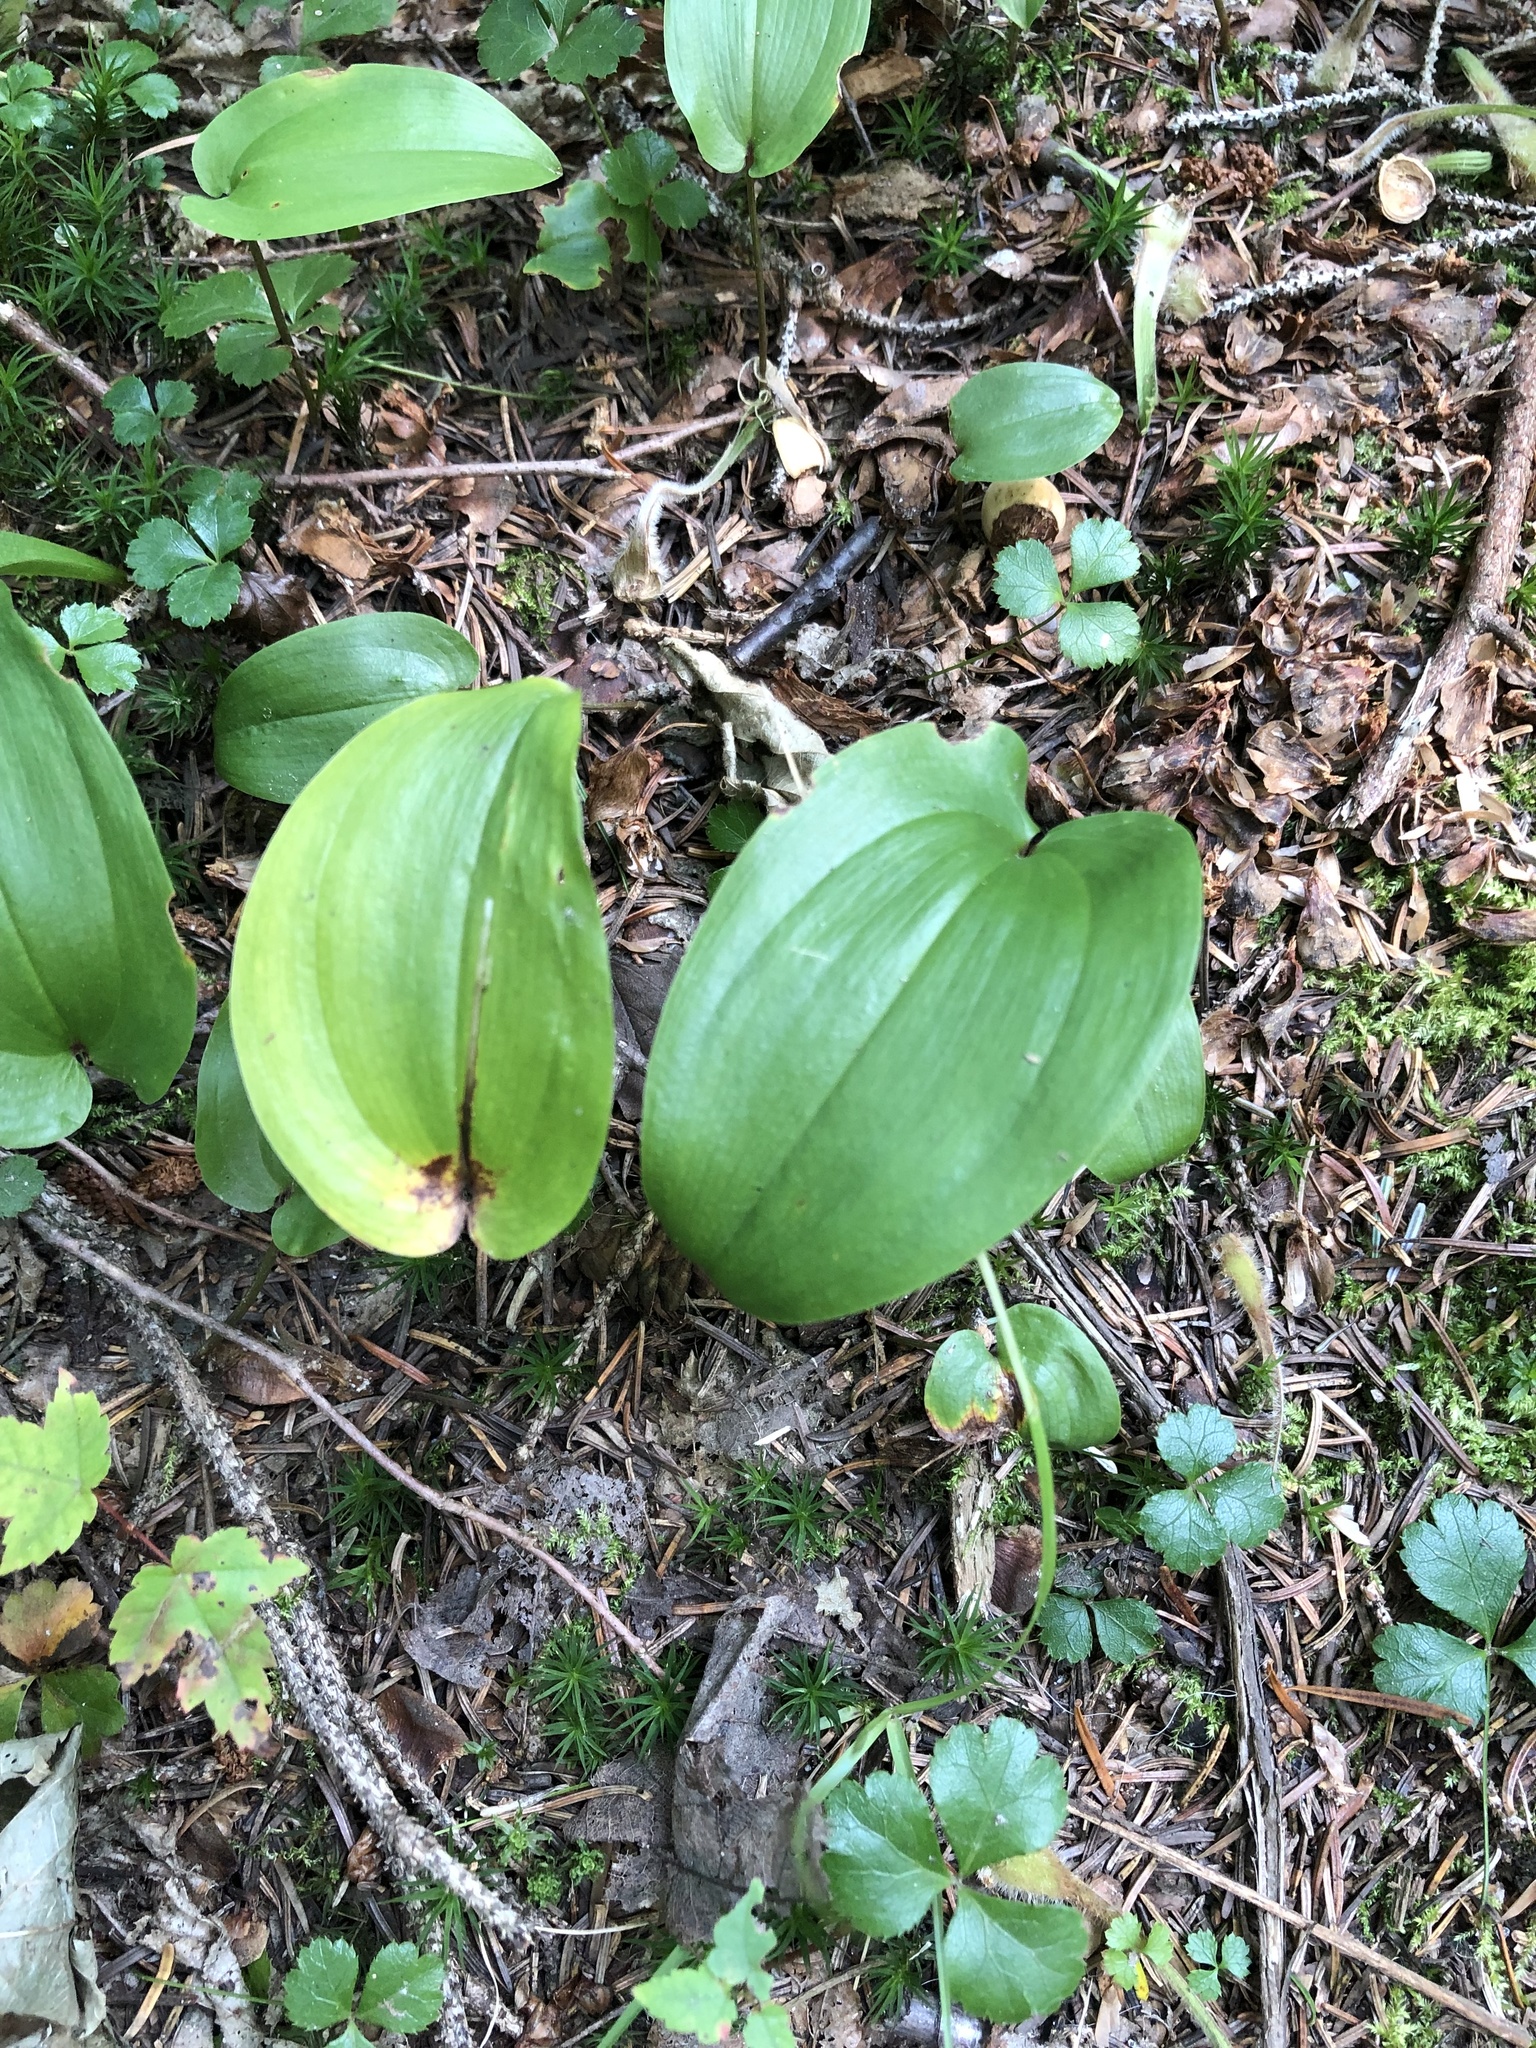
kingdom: Plantae
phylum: Tracheophyta
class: Liliopsida
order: Asparagales
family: Asparagaceae
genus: Maianthemum
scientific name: Maianthemum canadense
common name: False lily-of-the-valley
